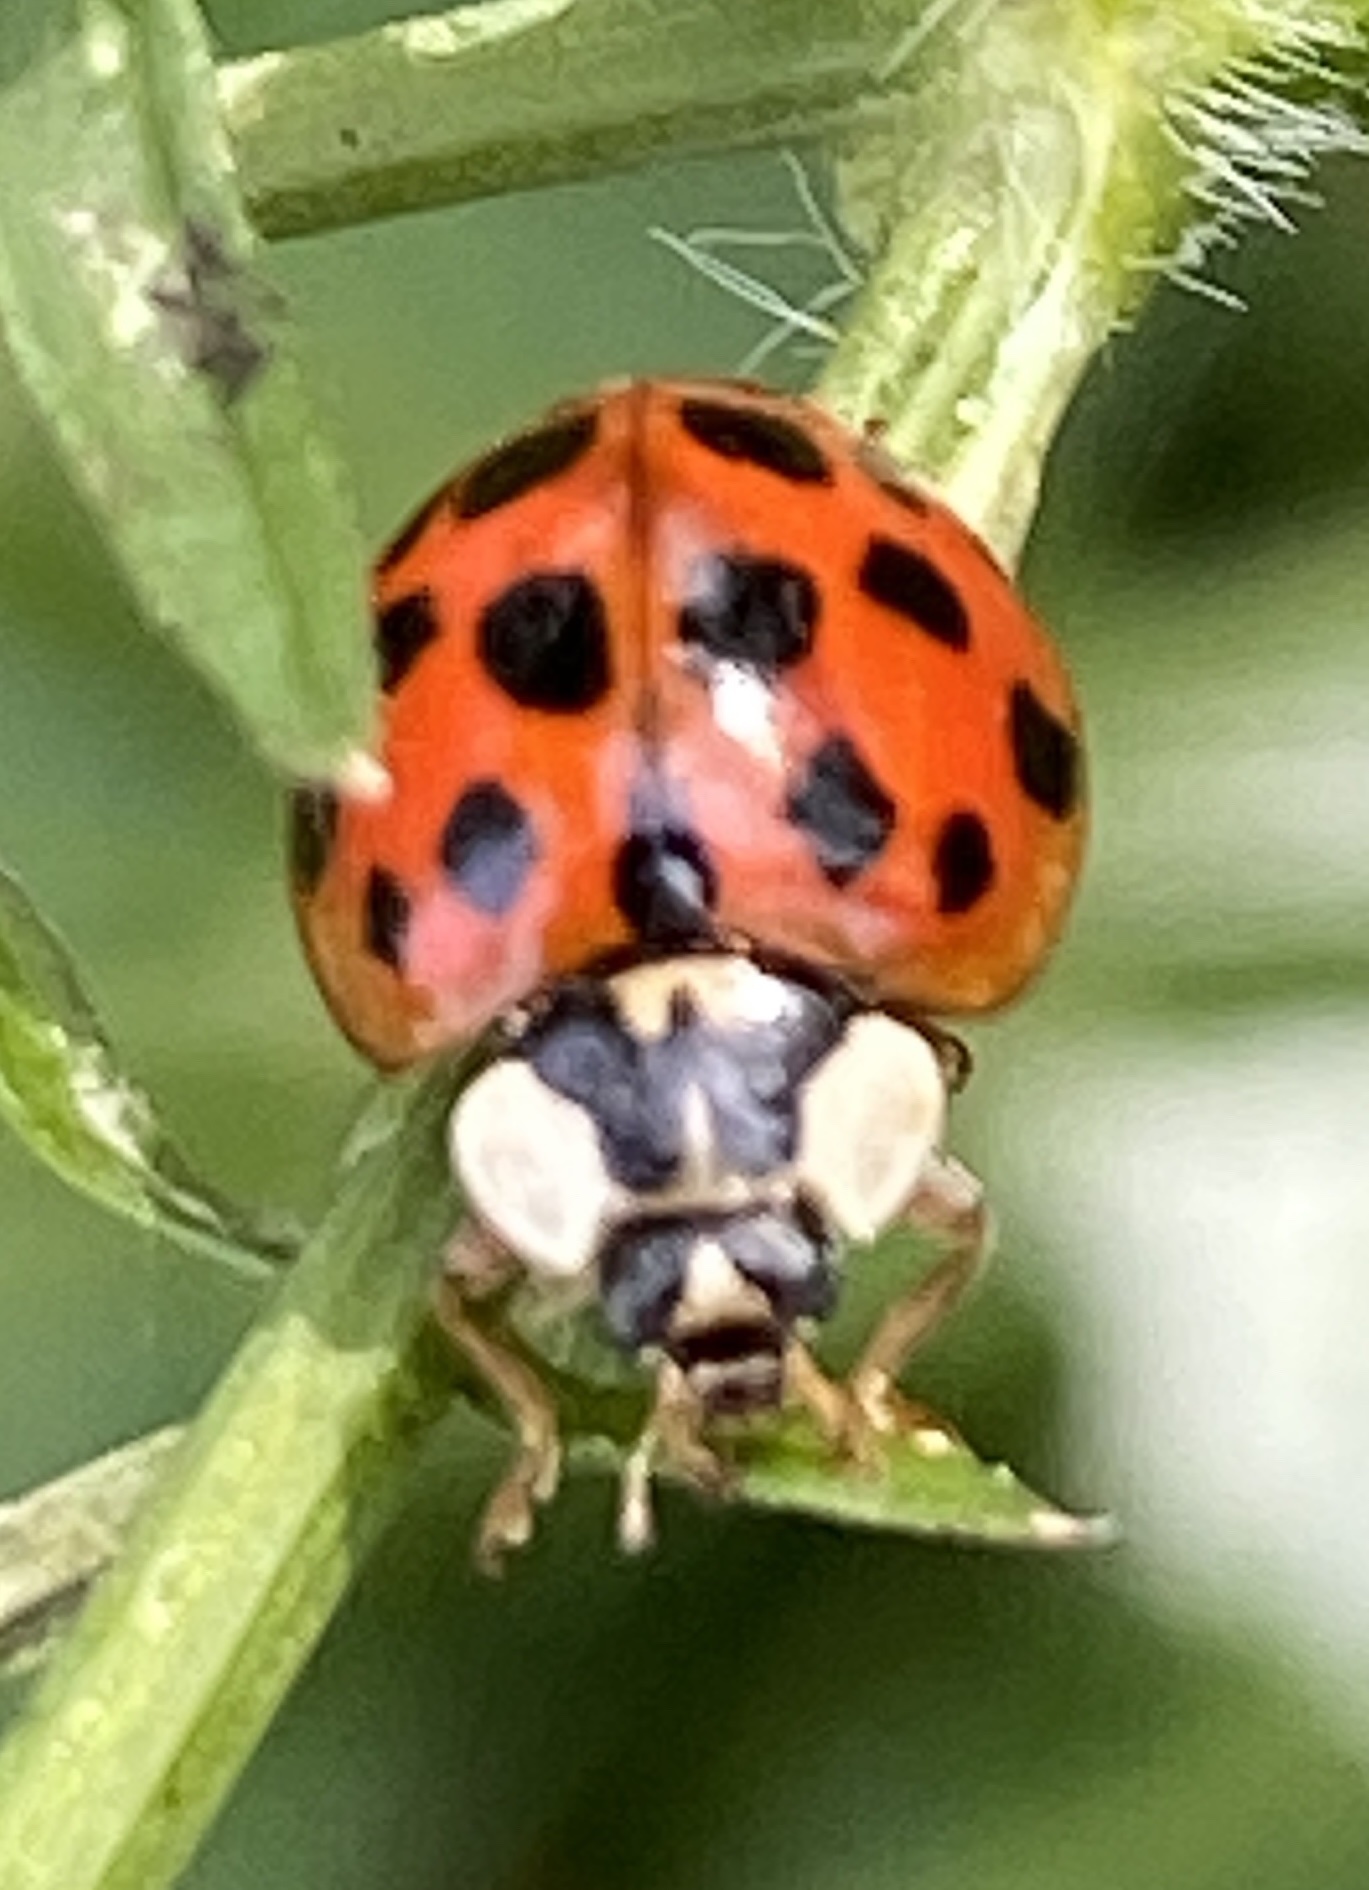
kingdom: Animalia
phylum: Arthropoda
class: Insecta
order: Coleoptera
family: Coccinellidae
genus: Harmonia
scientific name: Harmonia axyridis
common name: Harlequin ladybird
